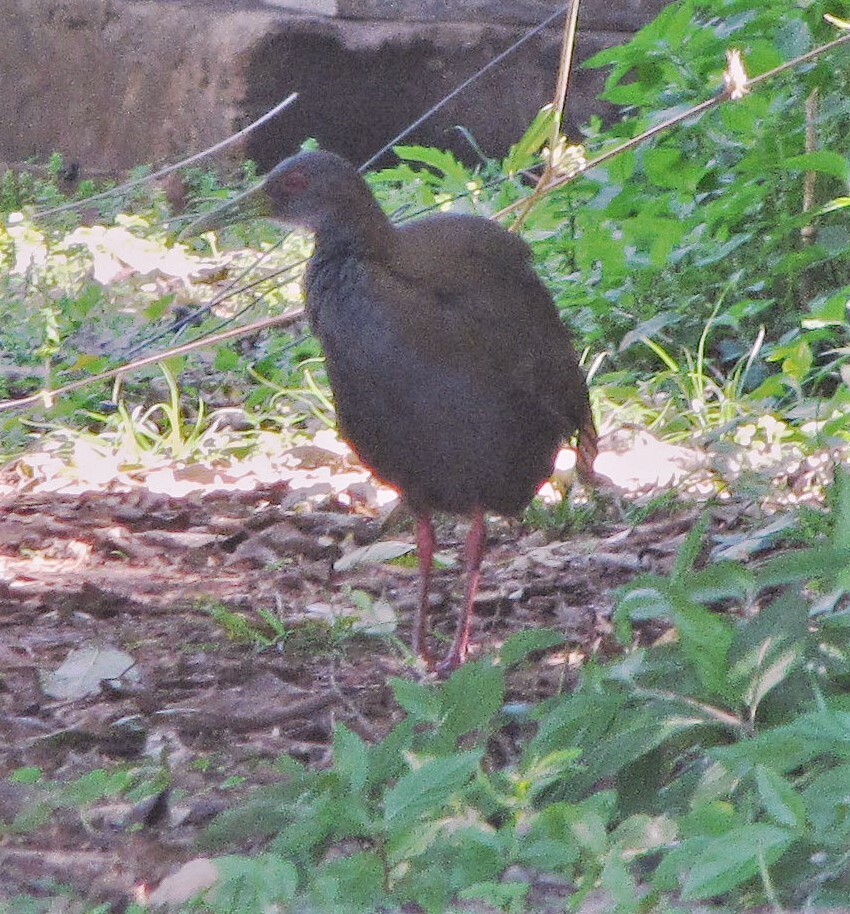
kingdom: Animalia
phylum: Chordata
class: Aves
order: Gruiformes
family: Rallidae
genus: Aramides
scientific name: Aramides saracura
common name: Slaty-breasted wood rail
